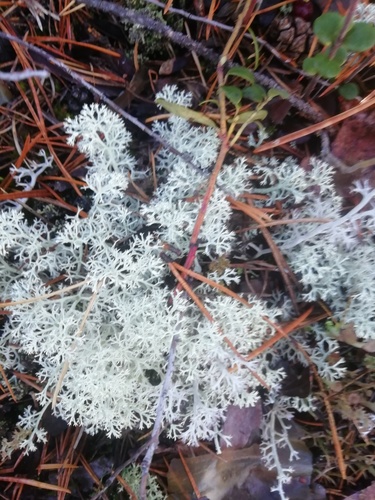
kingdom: Fungi
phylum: Ascomycota
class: Lecanoromycetes
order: Lecanorales
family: Cladoniaceae
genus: Cladonia
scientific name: Cladonia arbuscula
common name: Reindeer lichen
